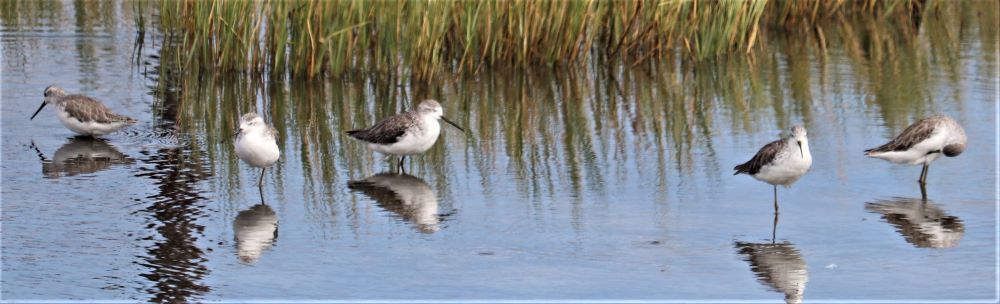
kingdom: Animalia
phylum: Chordata
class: Aves
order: Charadriiformes
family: Scolopacidae
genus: Tringa
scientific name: Tringa stagnatilis
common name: Marsh sandpiper
